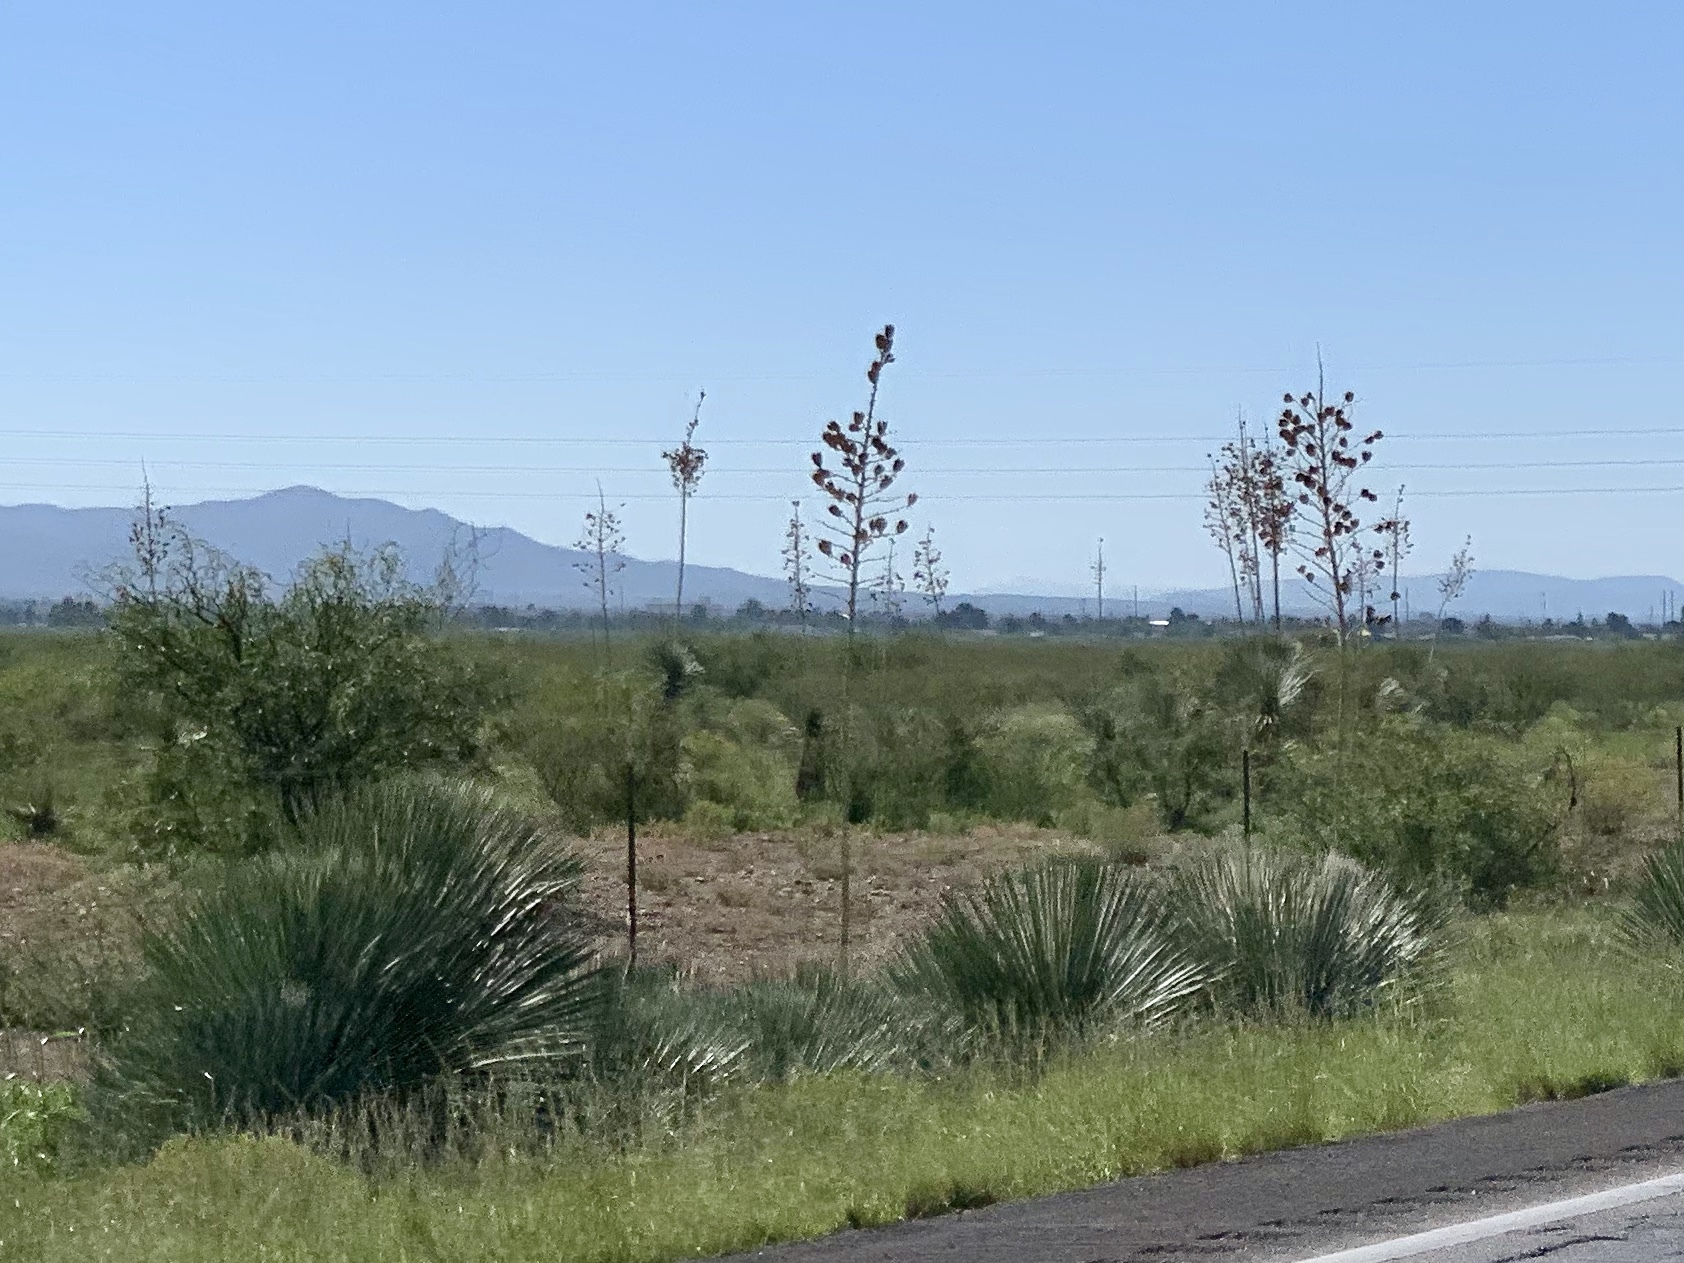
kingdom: Plantae
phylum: Tracheophyta
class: Liliopsida
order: Asparagales
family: Asparagaceae
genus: Yucca
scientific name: Yucca elata
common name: Palmella
